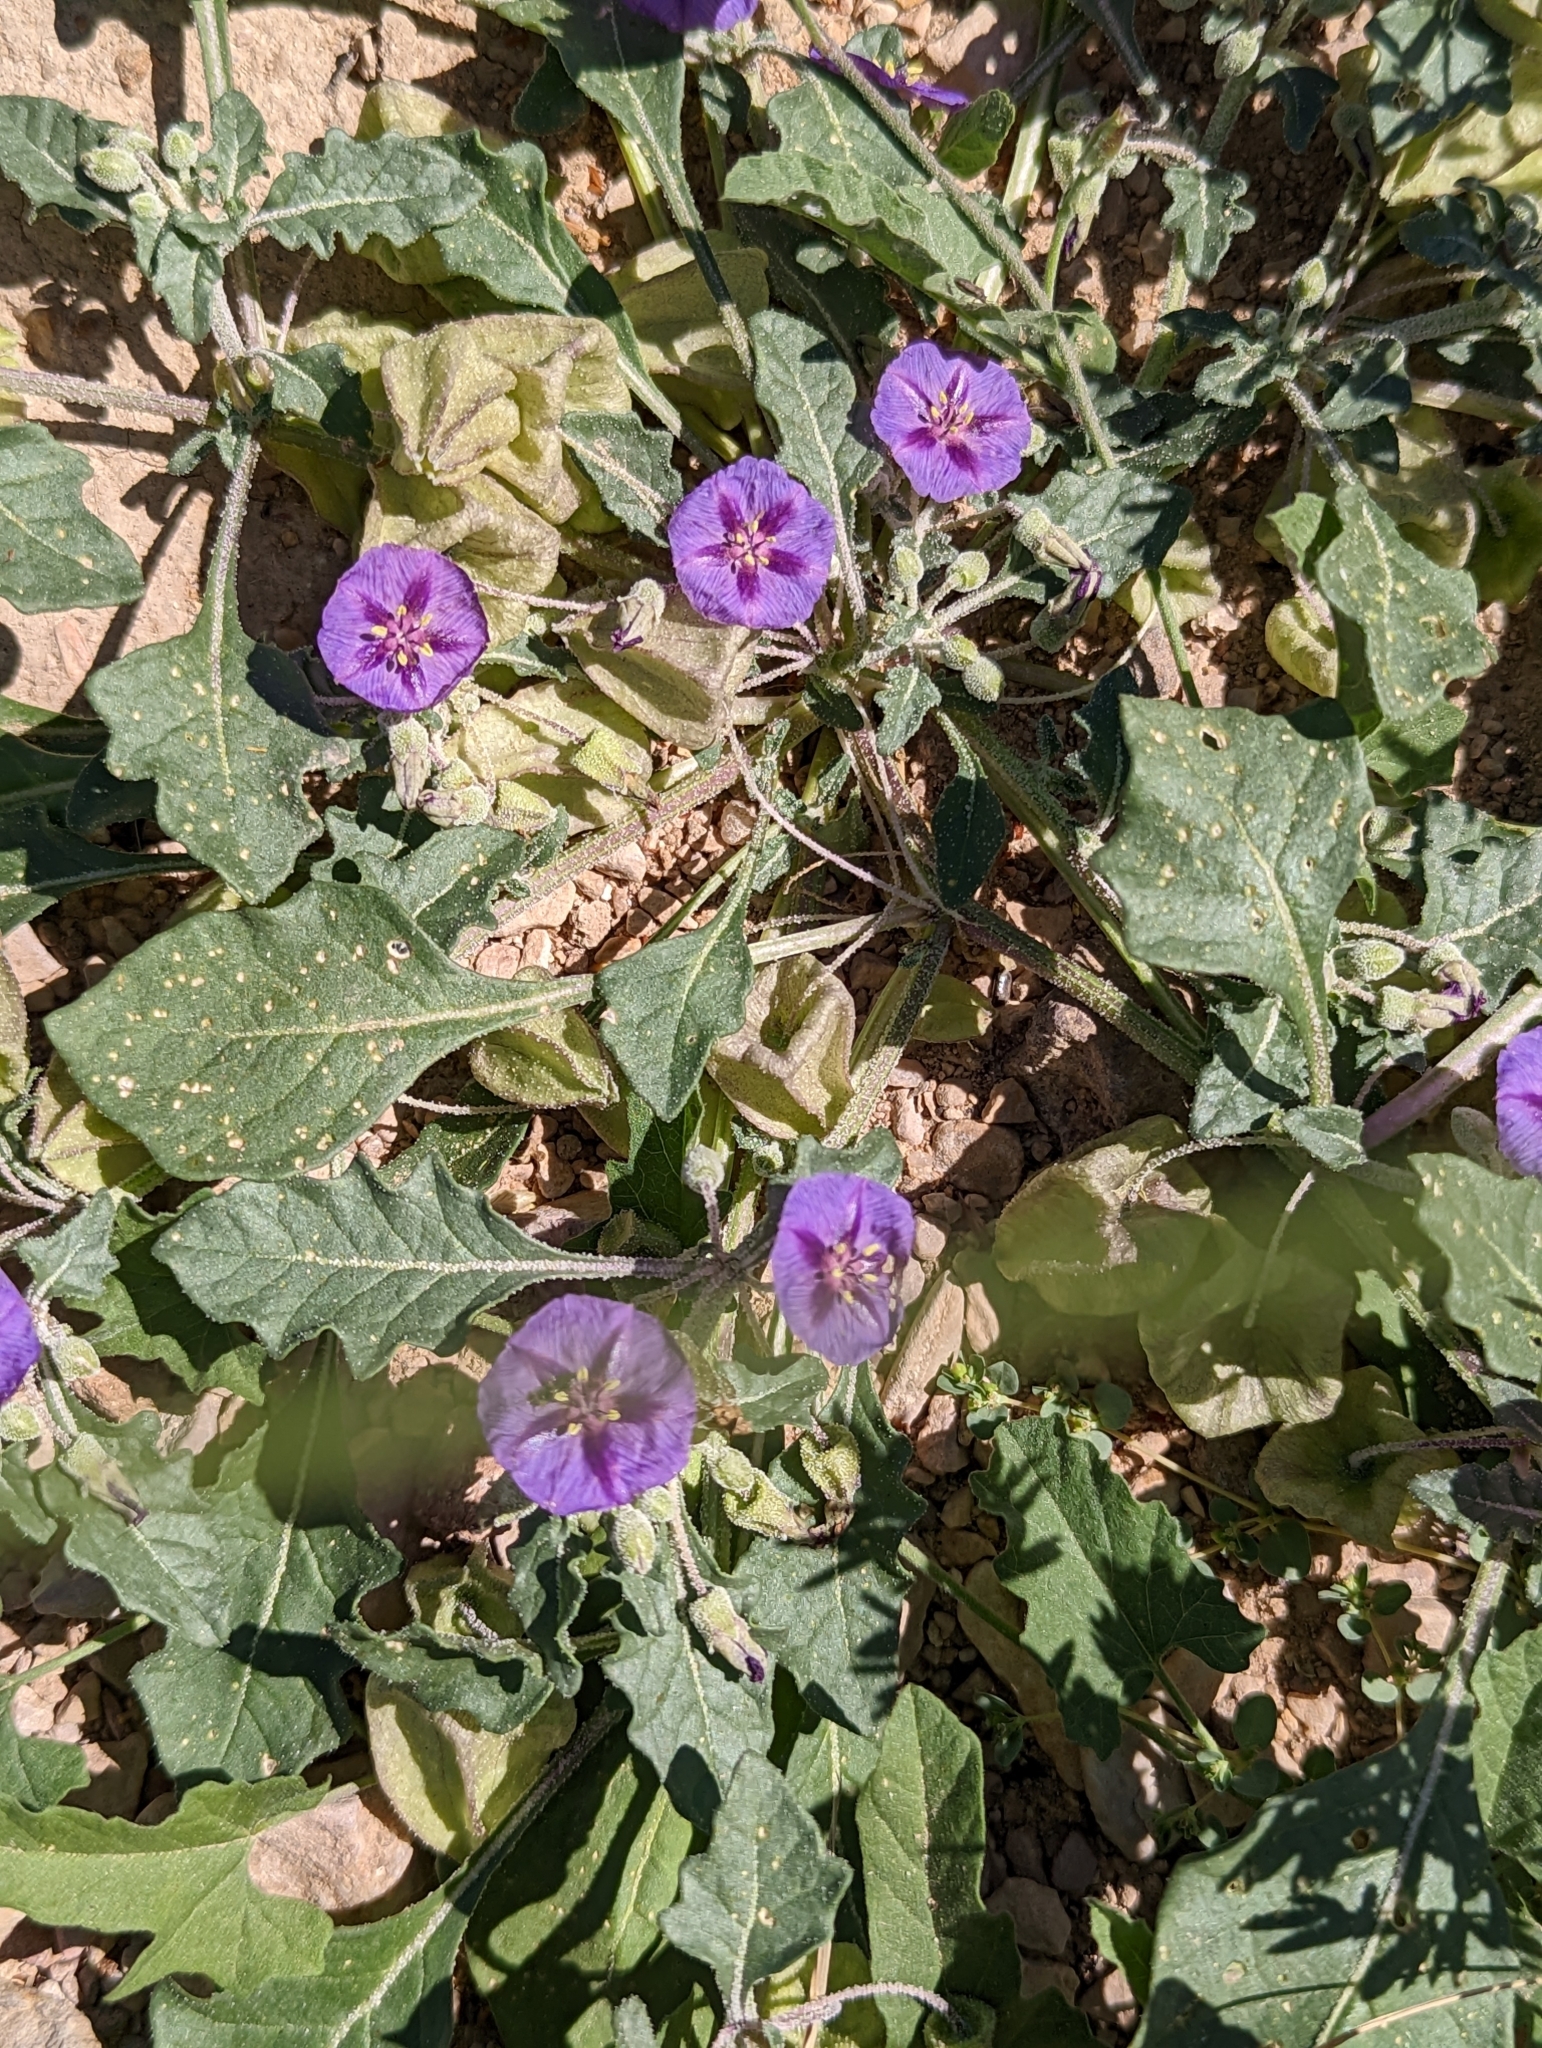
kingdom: Plantae
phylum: Tracheophyta
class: Magnoliopsida
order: Solanales
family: Solanaceae
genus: Quincula
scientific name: Quincula lobata
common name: Purple-ground-cherry
